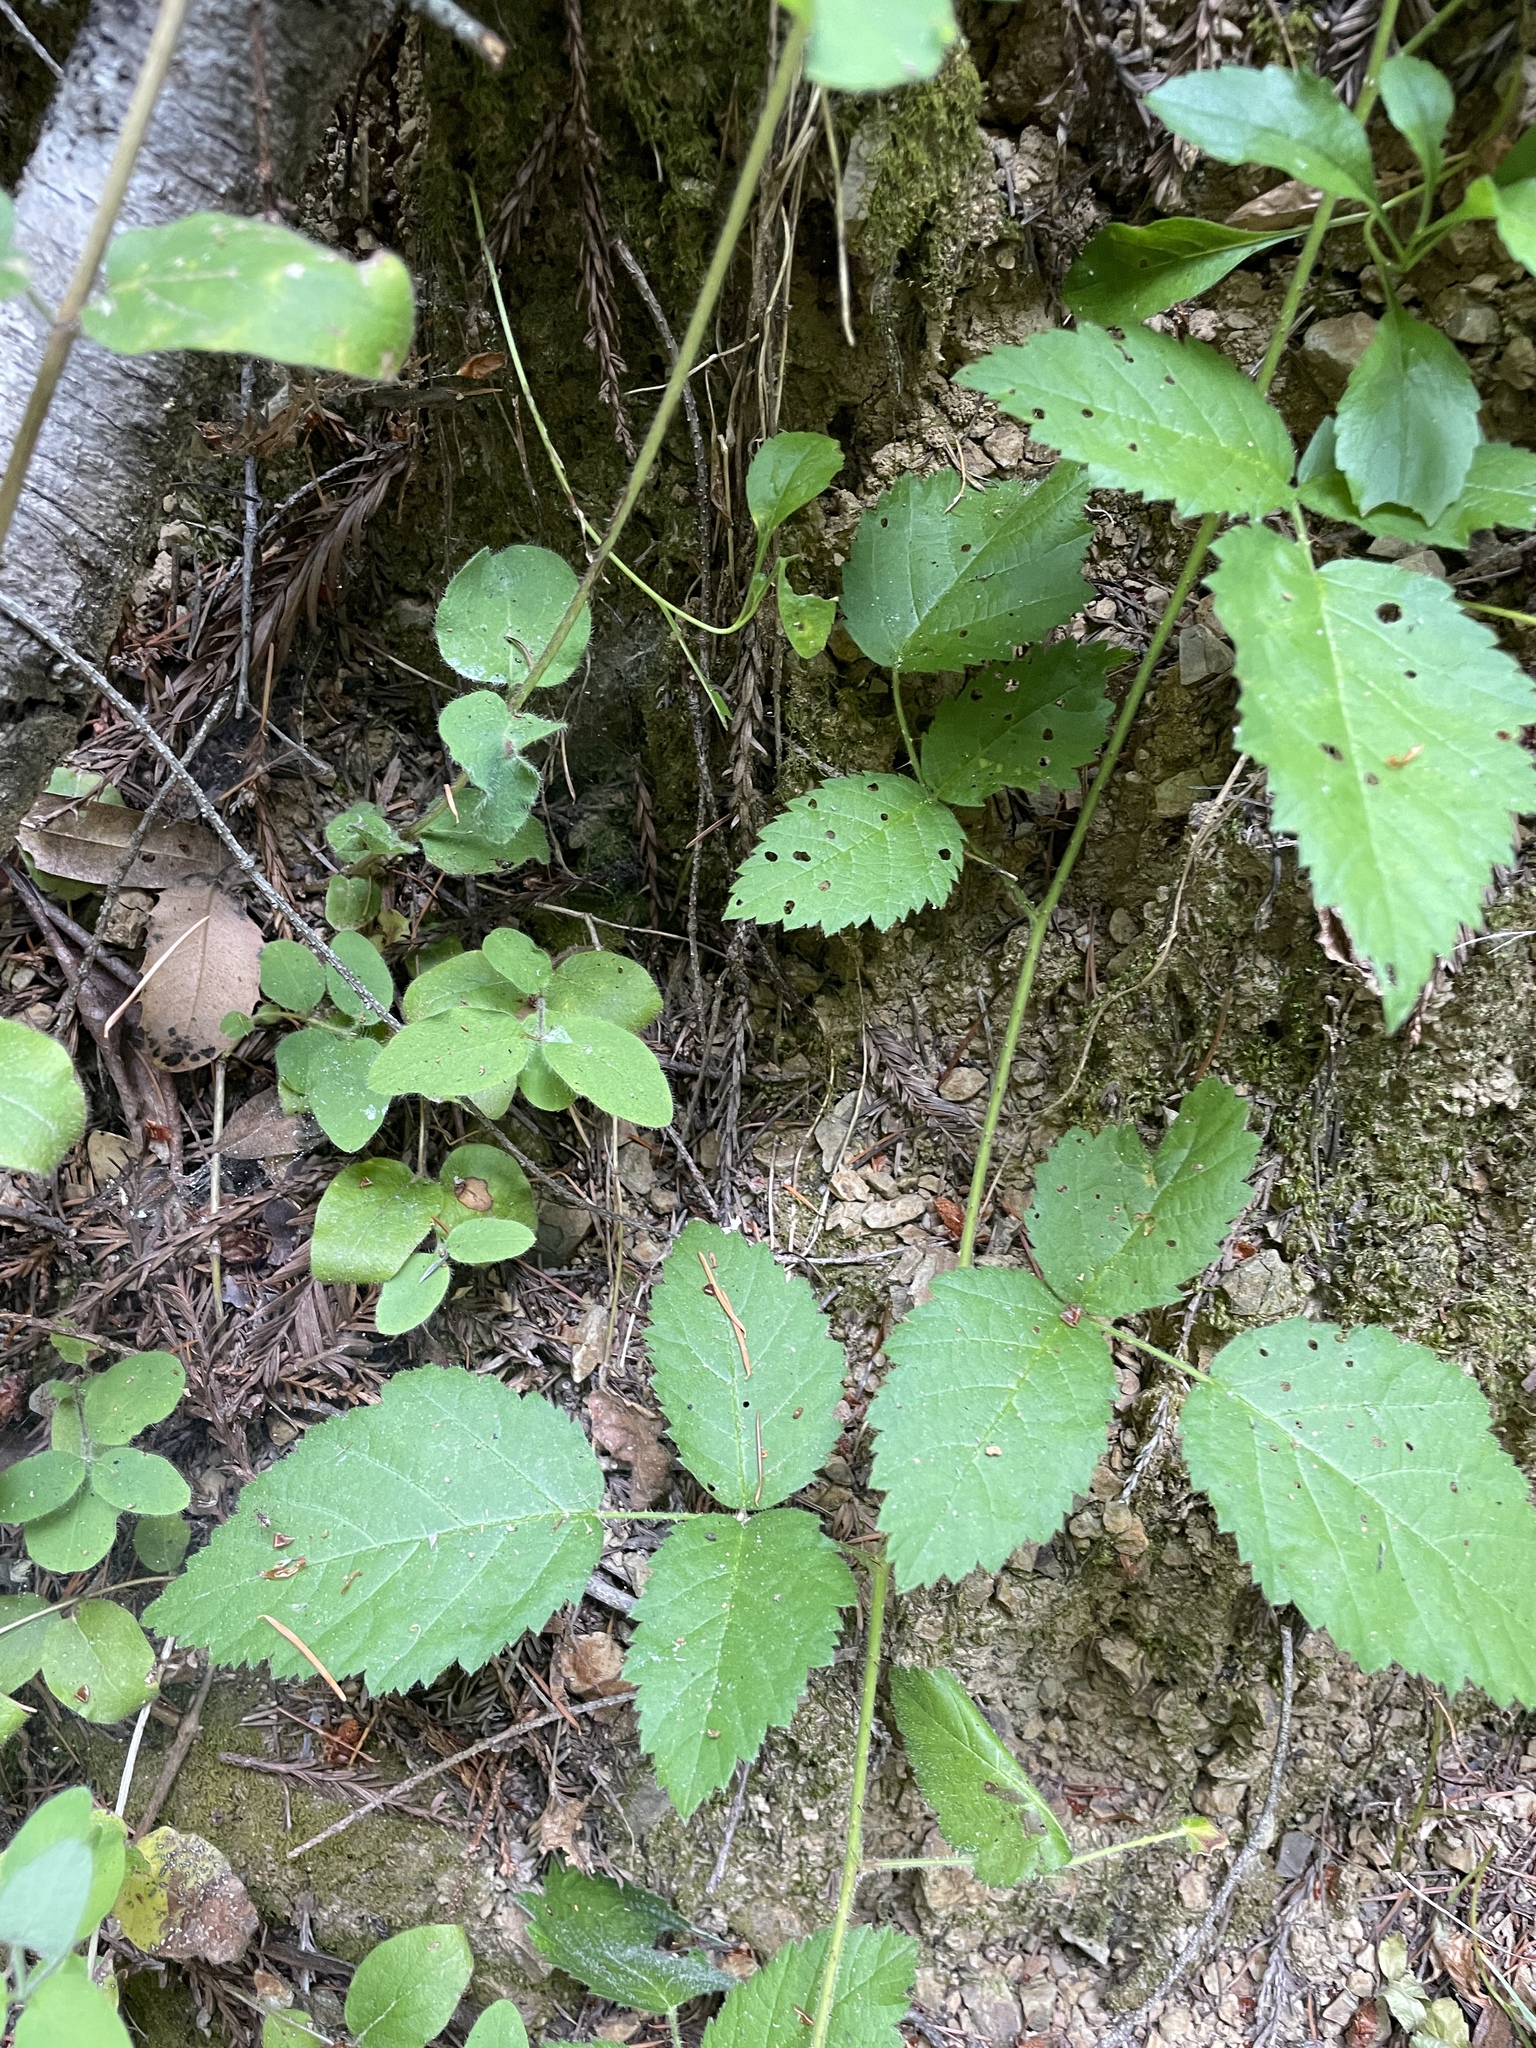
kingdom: Plantae
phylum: Tracheophyta
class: Magnoliopsida
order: Rosales
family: Rosaceae
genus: Rubus
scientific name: Rubus ursinus
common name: Pacific blackberry
